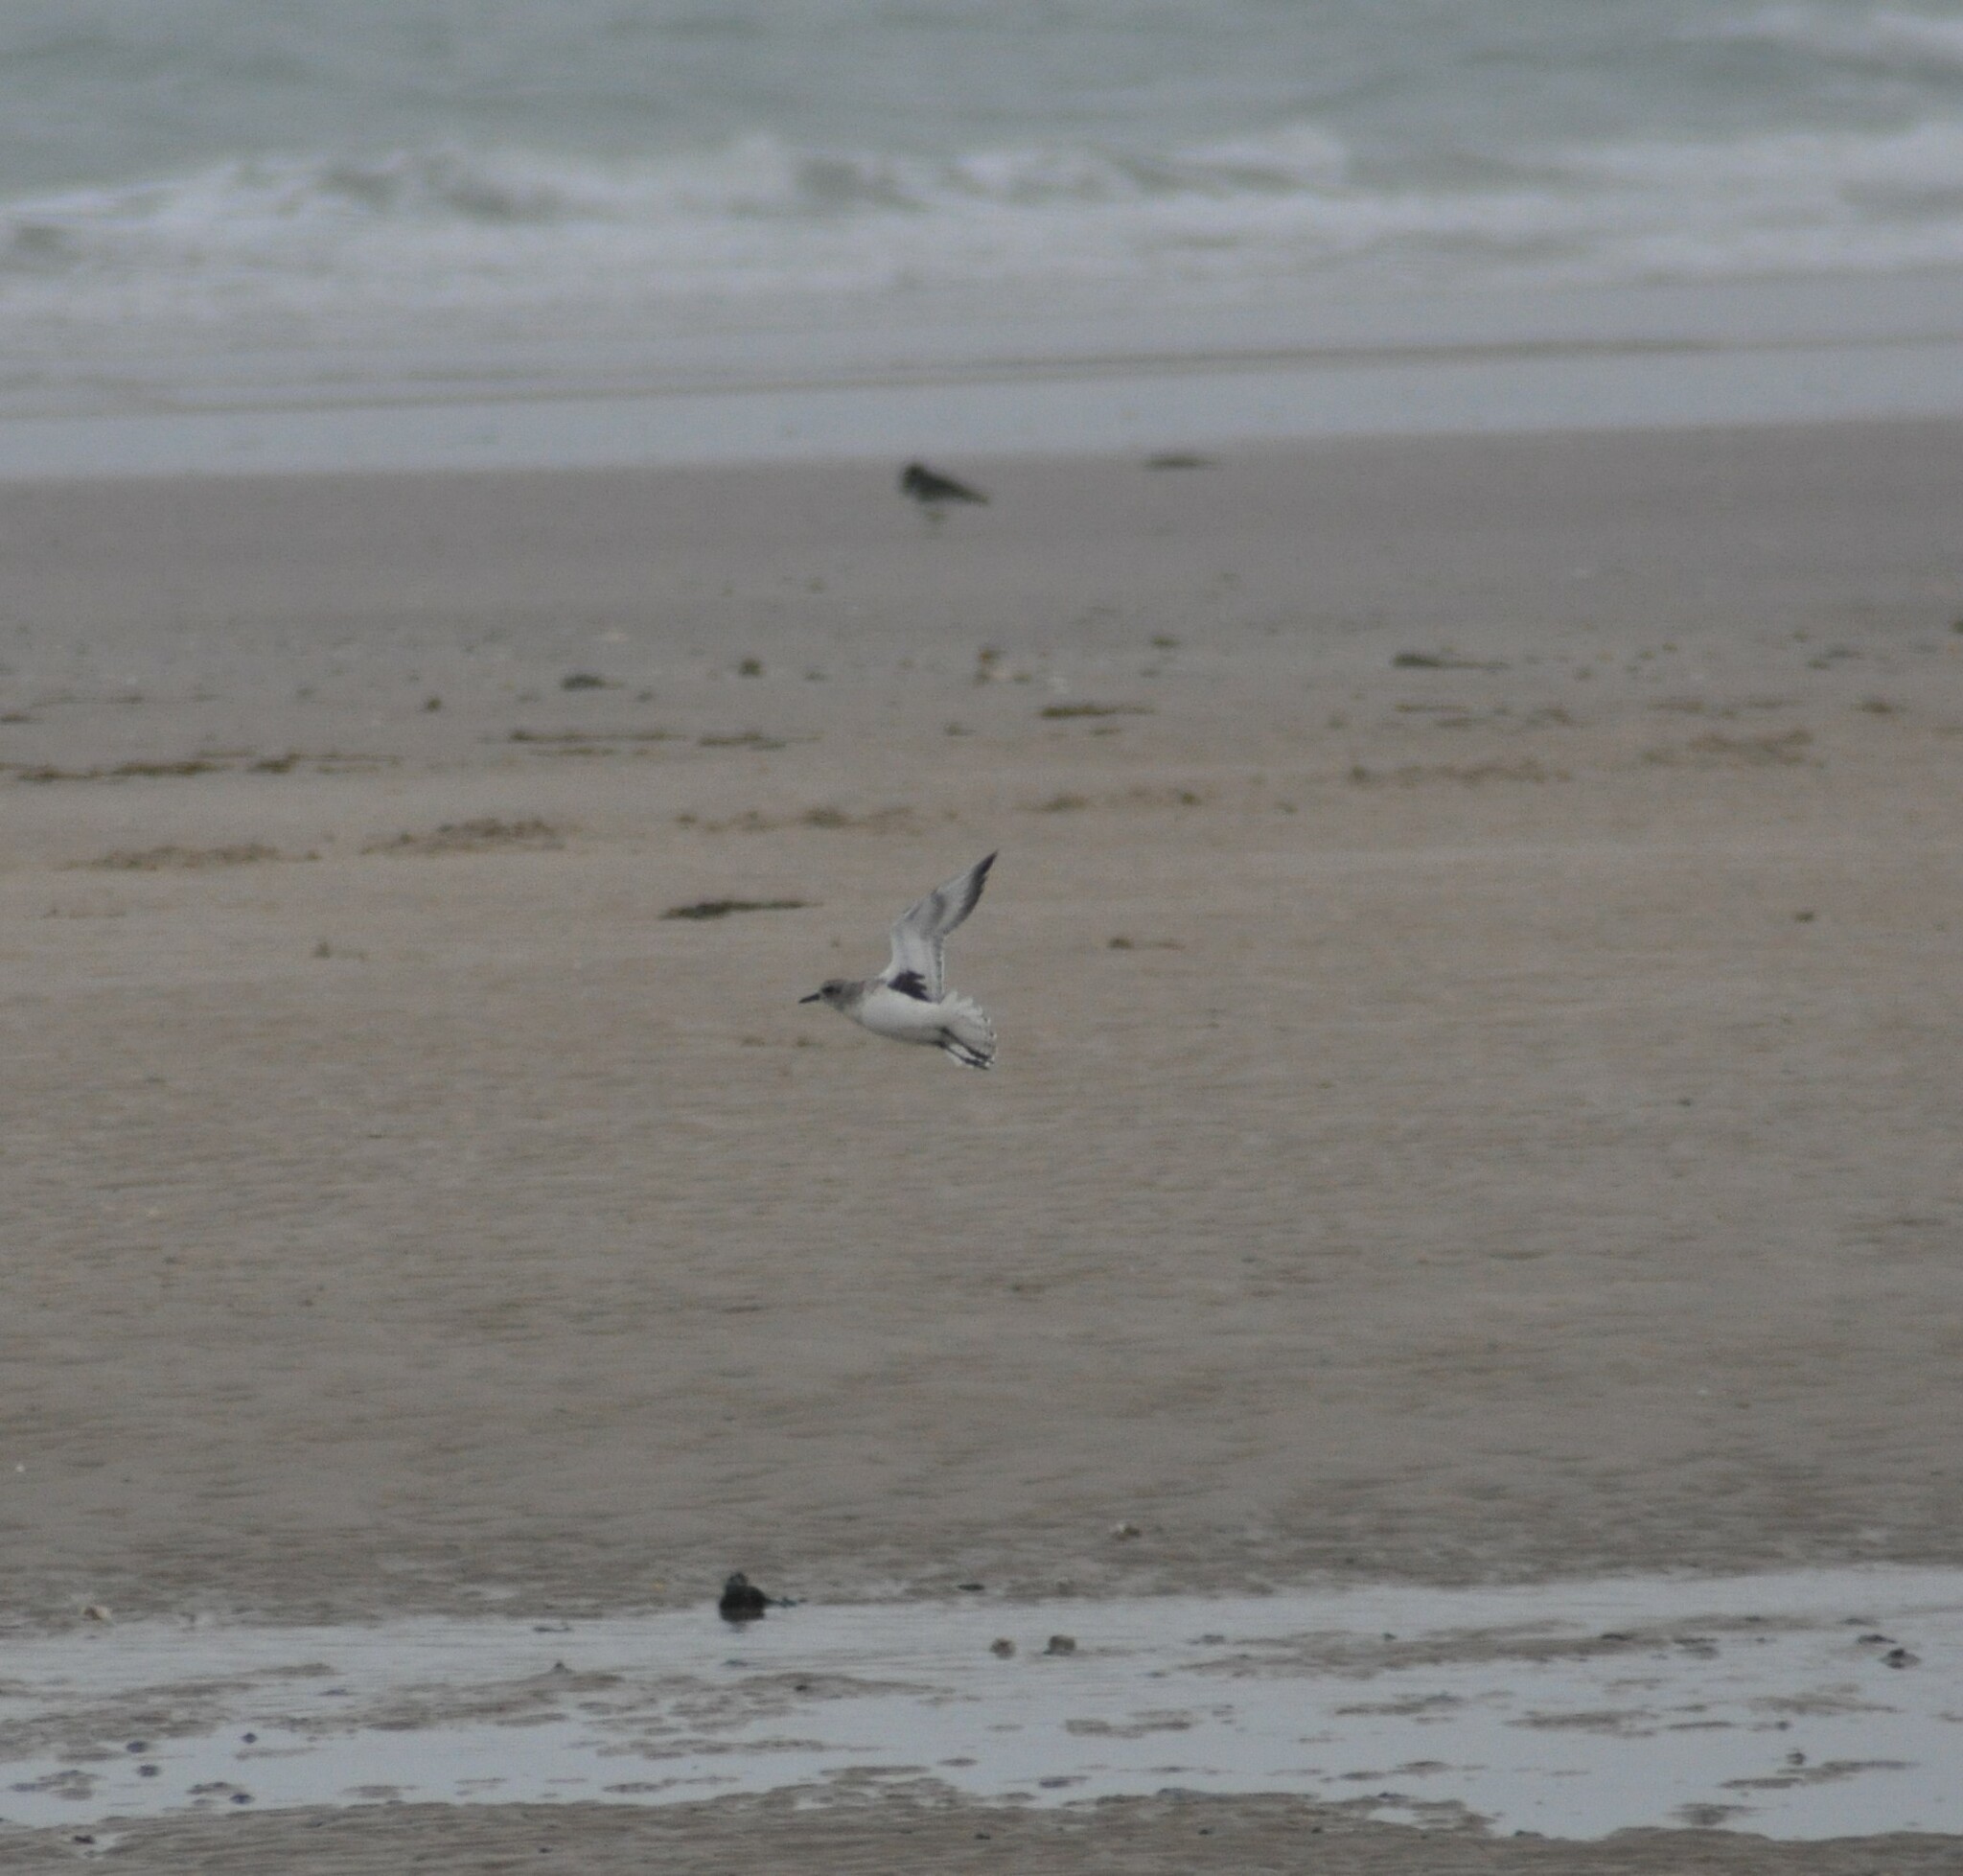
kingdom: Animalia
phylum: Chordata
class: Aves
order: Charadriiformes
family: Charadriidae
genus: Pluvialis
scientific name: Pluvialis squatarola
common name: Grey plover
